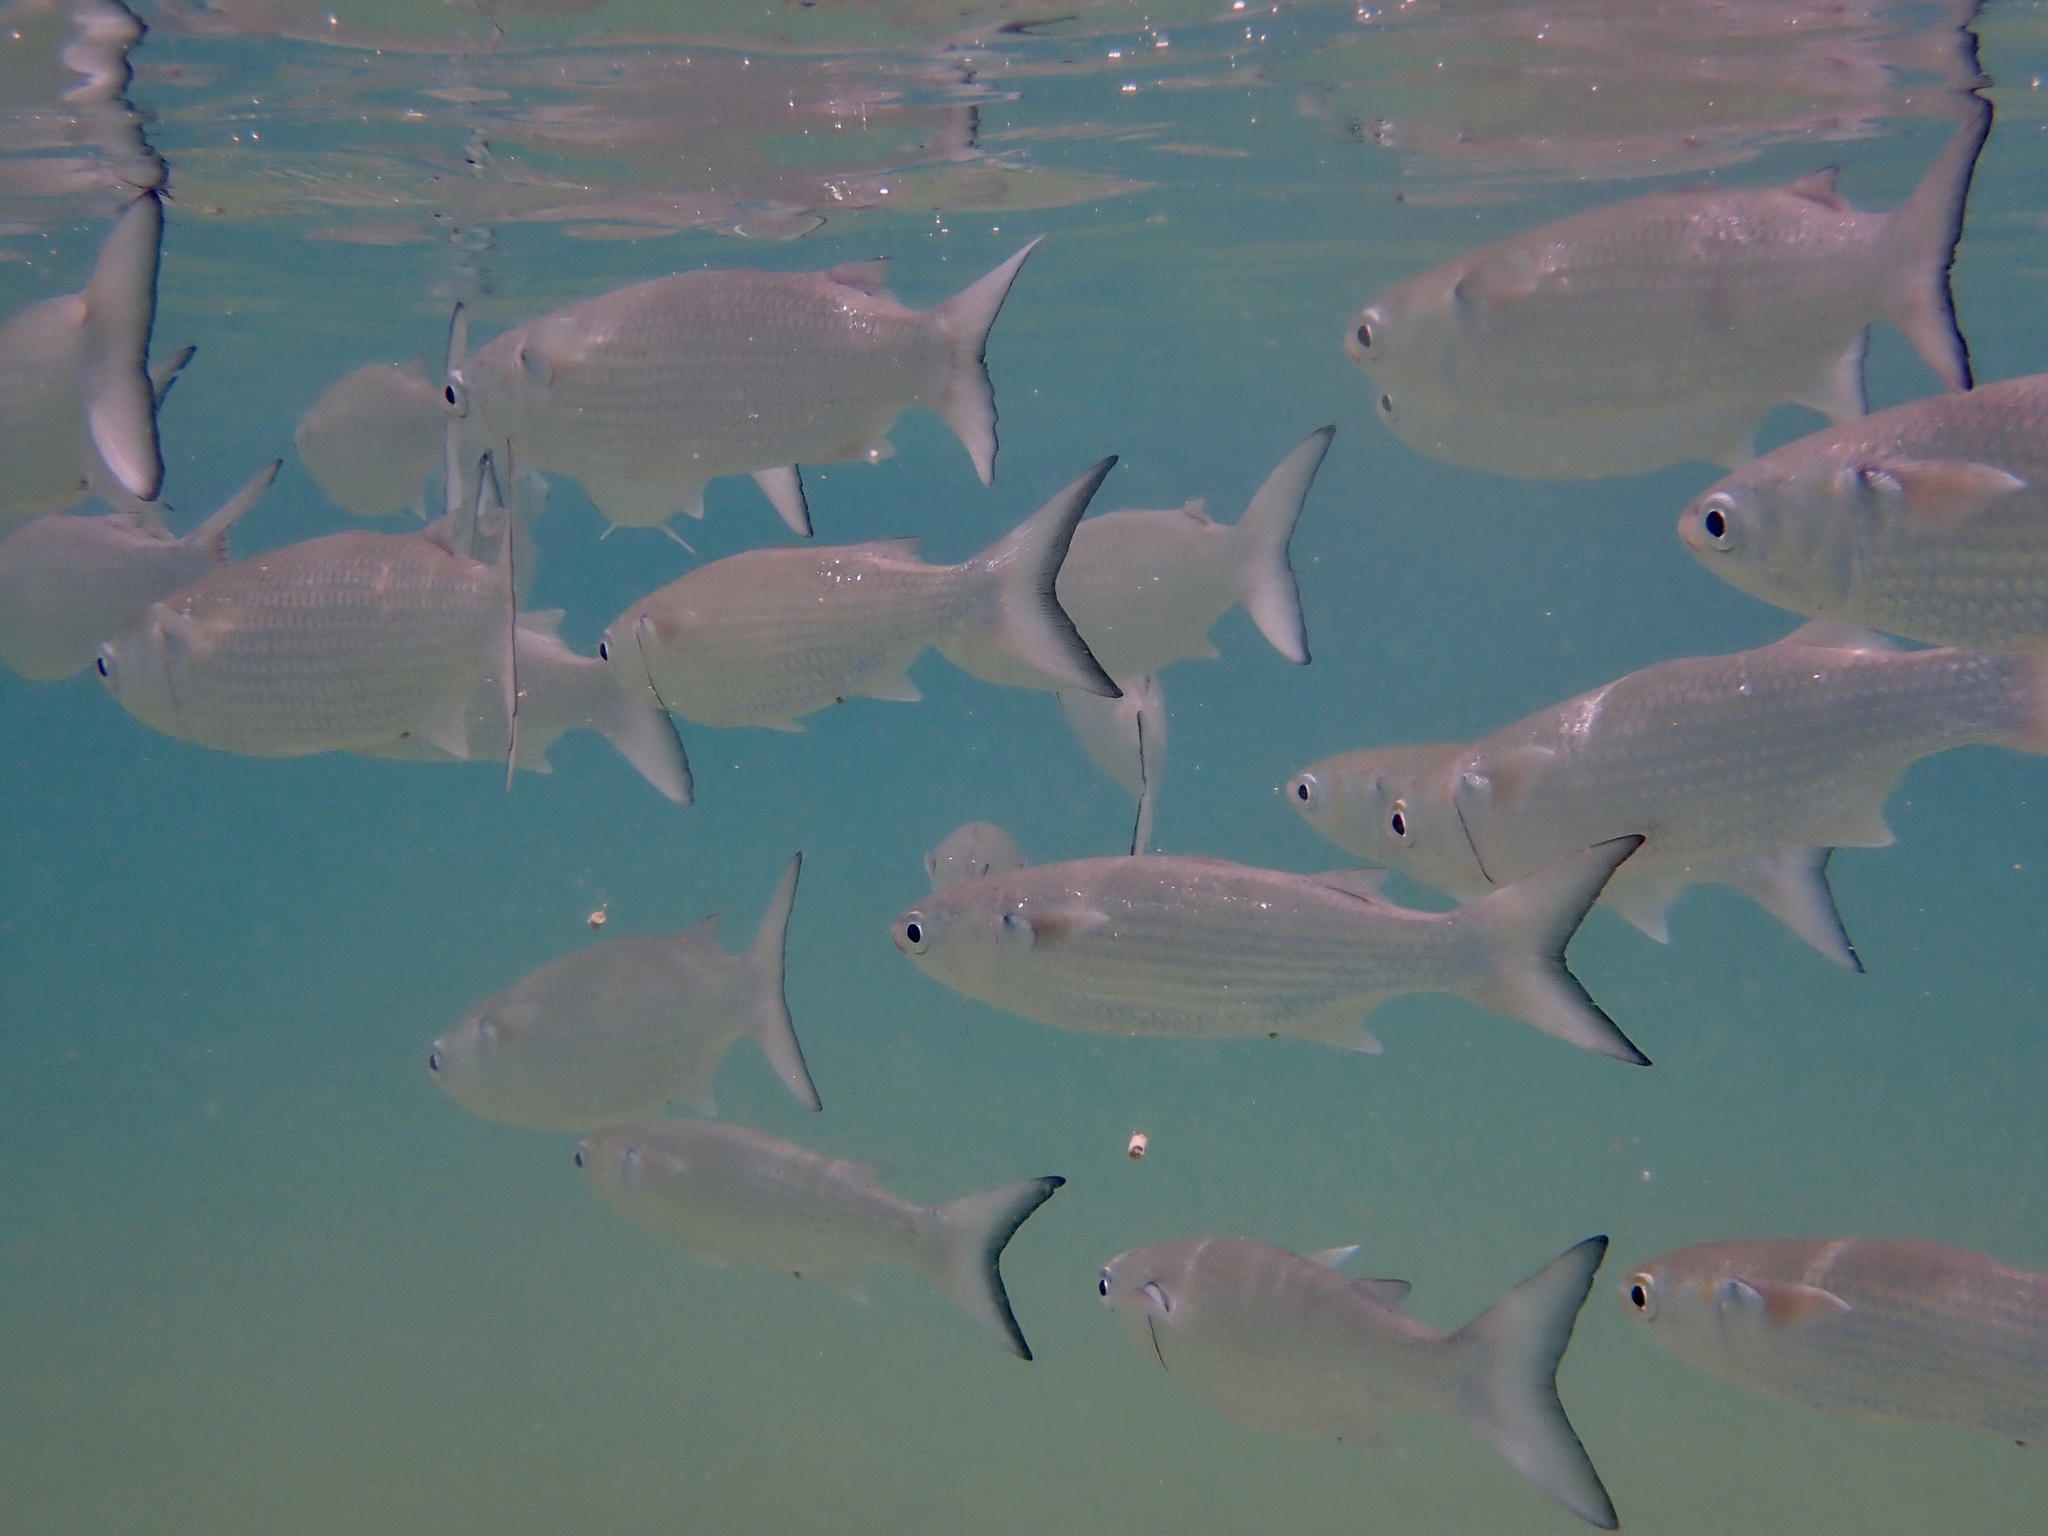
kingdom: Animalia
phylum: Chordata
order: Mugiliformes
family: Mugilidae
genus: Mugil
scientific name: Mugil curema
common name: White mullet
